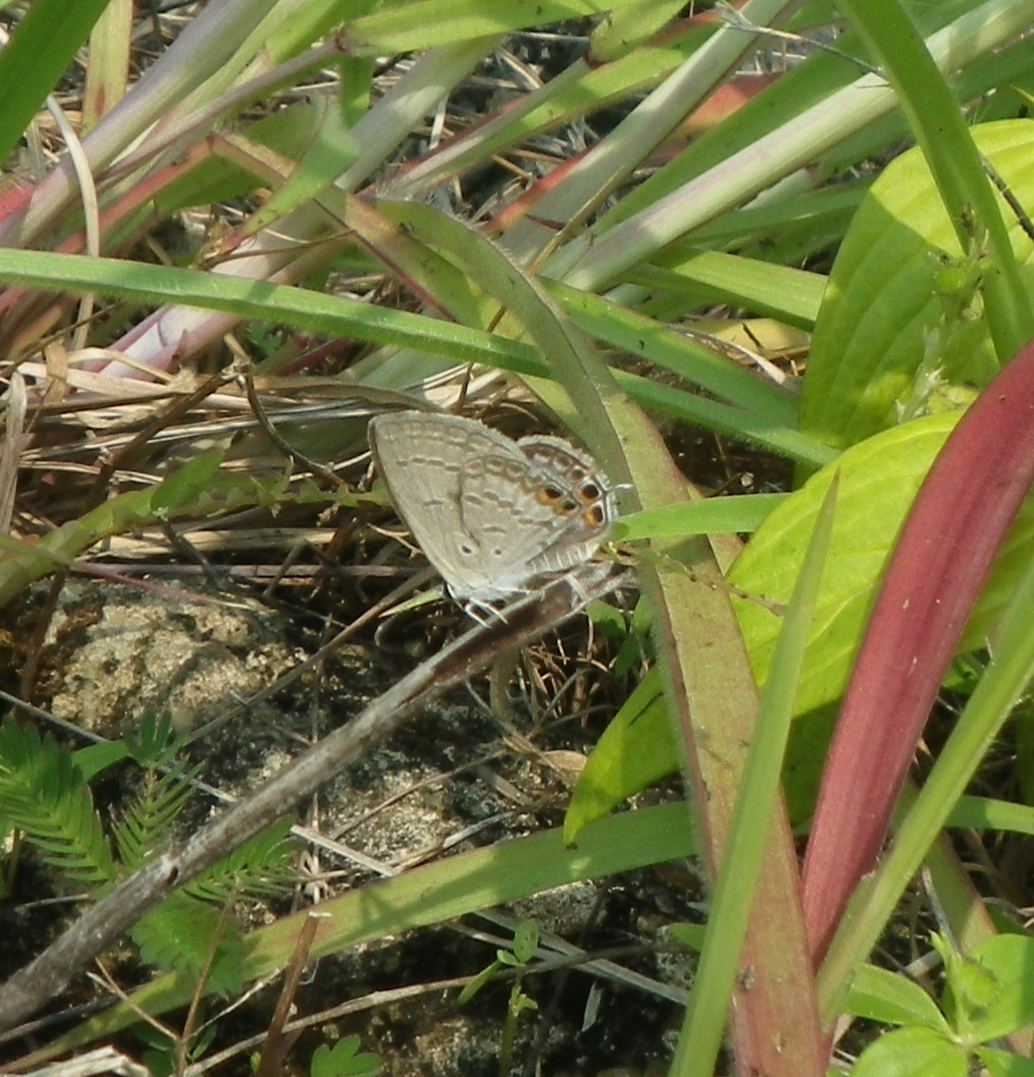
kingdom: Animalia
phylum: Arthropoda
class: Insecta
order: Lepidoptera
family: Lycaenidae
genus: Euchrysops
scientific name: Euchrysops cnejus
